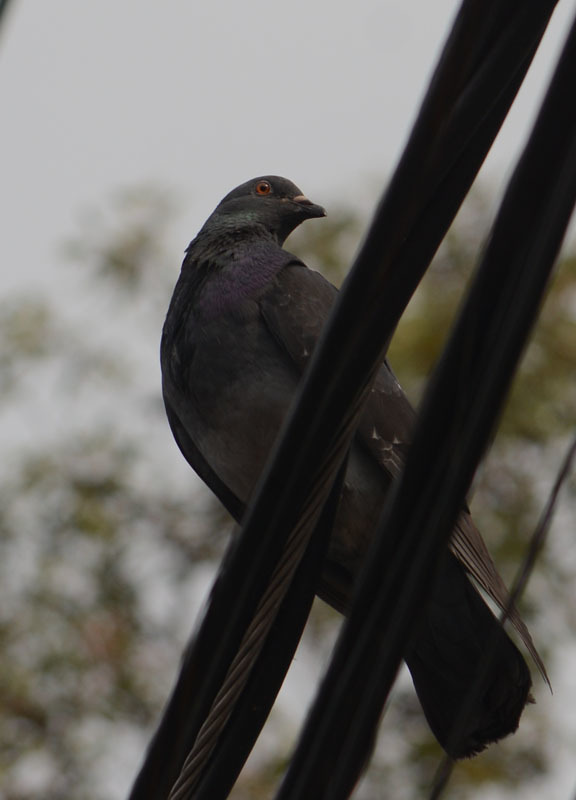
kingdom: Animalia
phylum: Chordata
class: Aves
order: Columbiformes
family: Columbidae
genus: Columba
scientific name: Columba livia
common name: Rock pigeon
